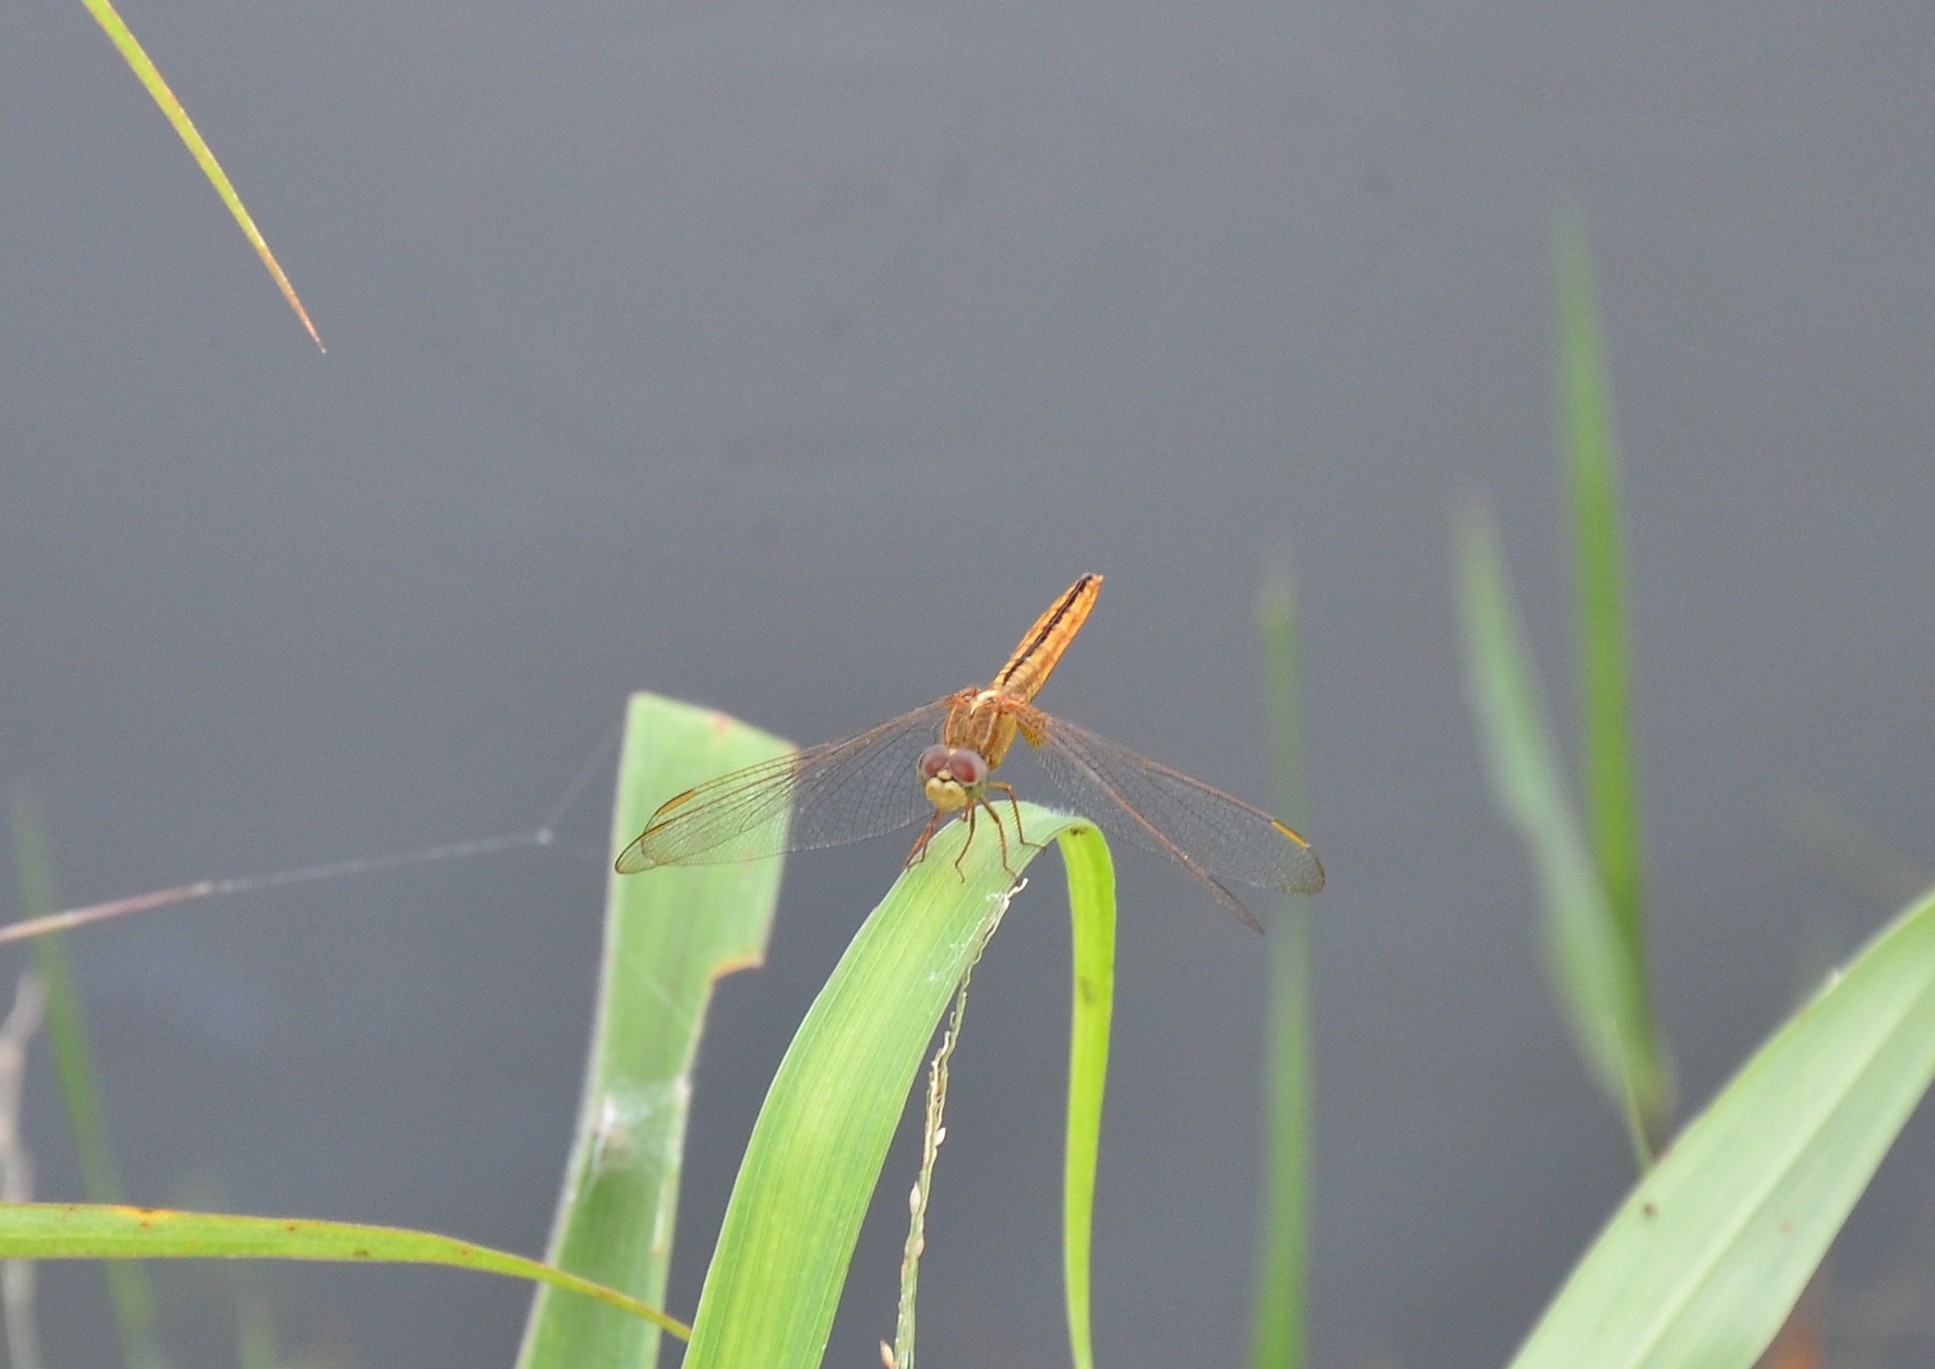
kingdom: Animalia
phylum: Arthropoda
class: Insecta
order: Odonata
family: Libellulidae
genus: Crocothemis
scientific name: Crocothemis servilia
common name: Scarlet skimmer
